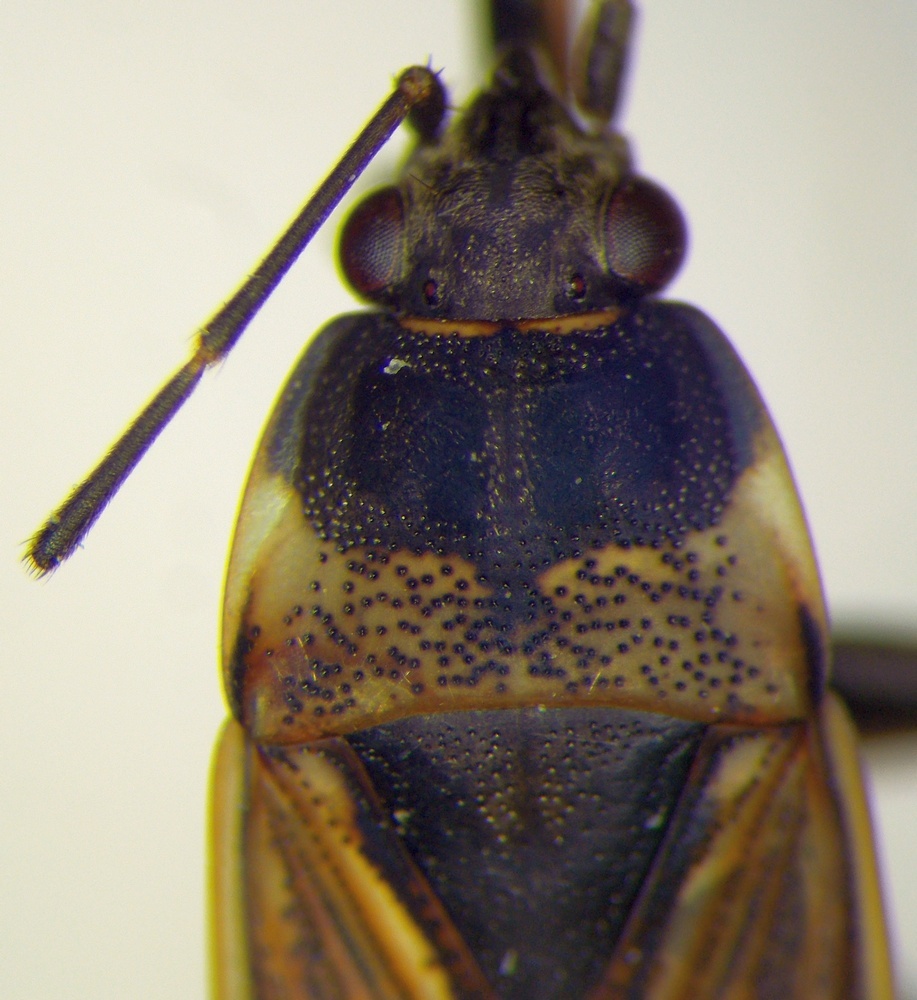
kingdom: Animalia
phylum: Arthropoda
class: Insecta
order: Hemiptera
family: Rhyparochromidae
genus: Rhyparochromus
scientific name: Rhyparochromus vulgaris
